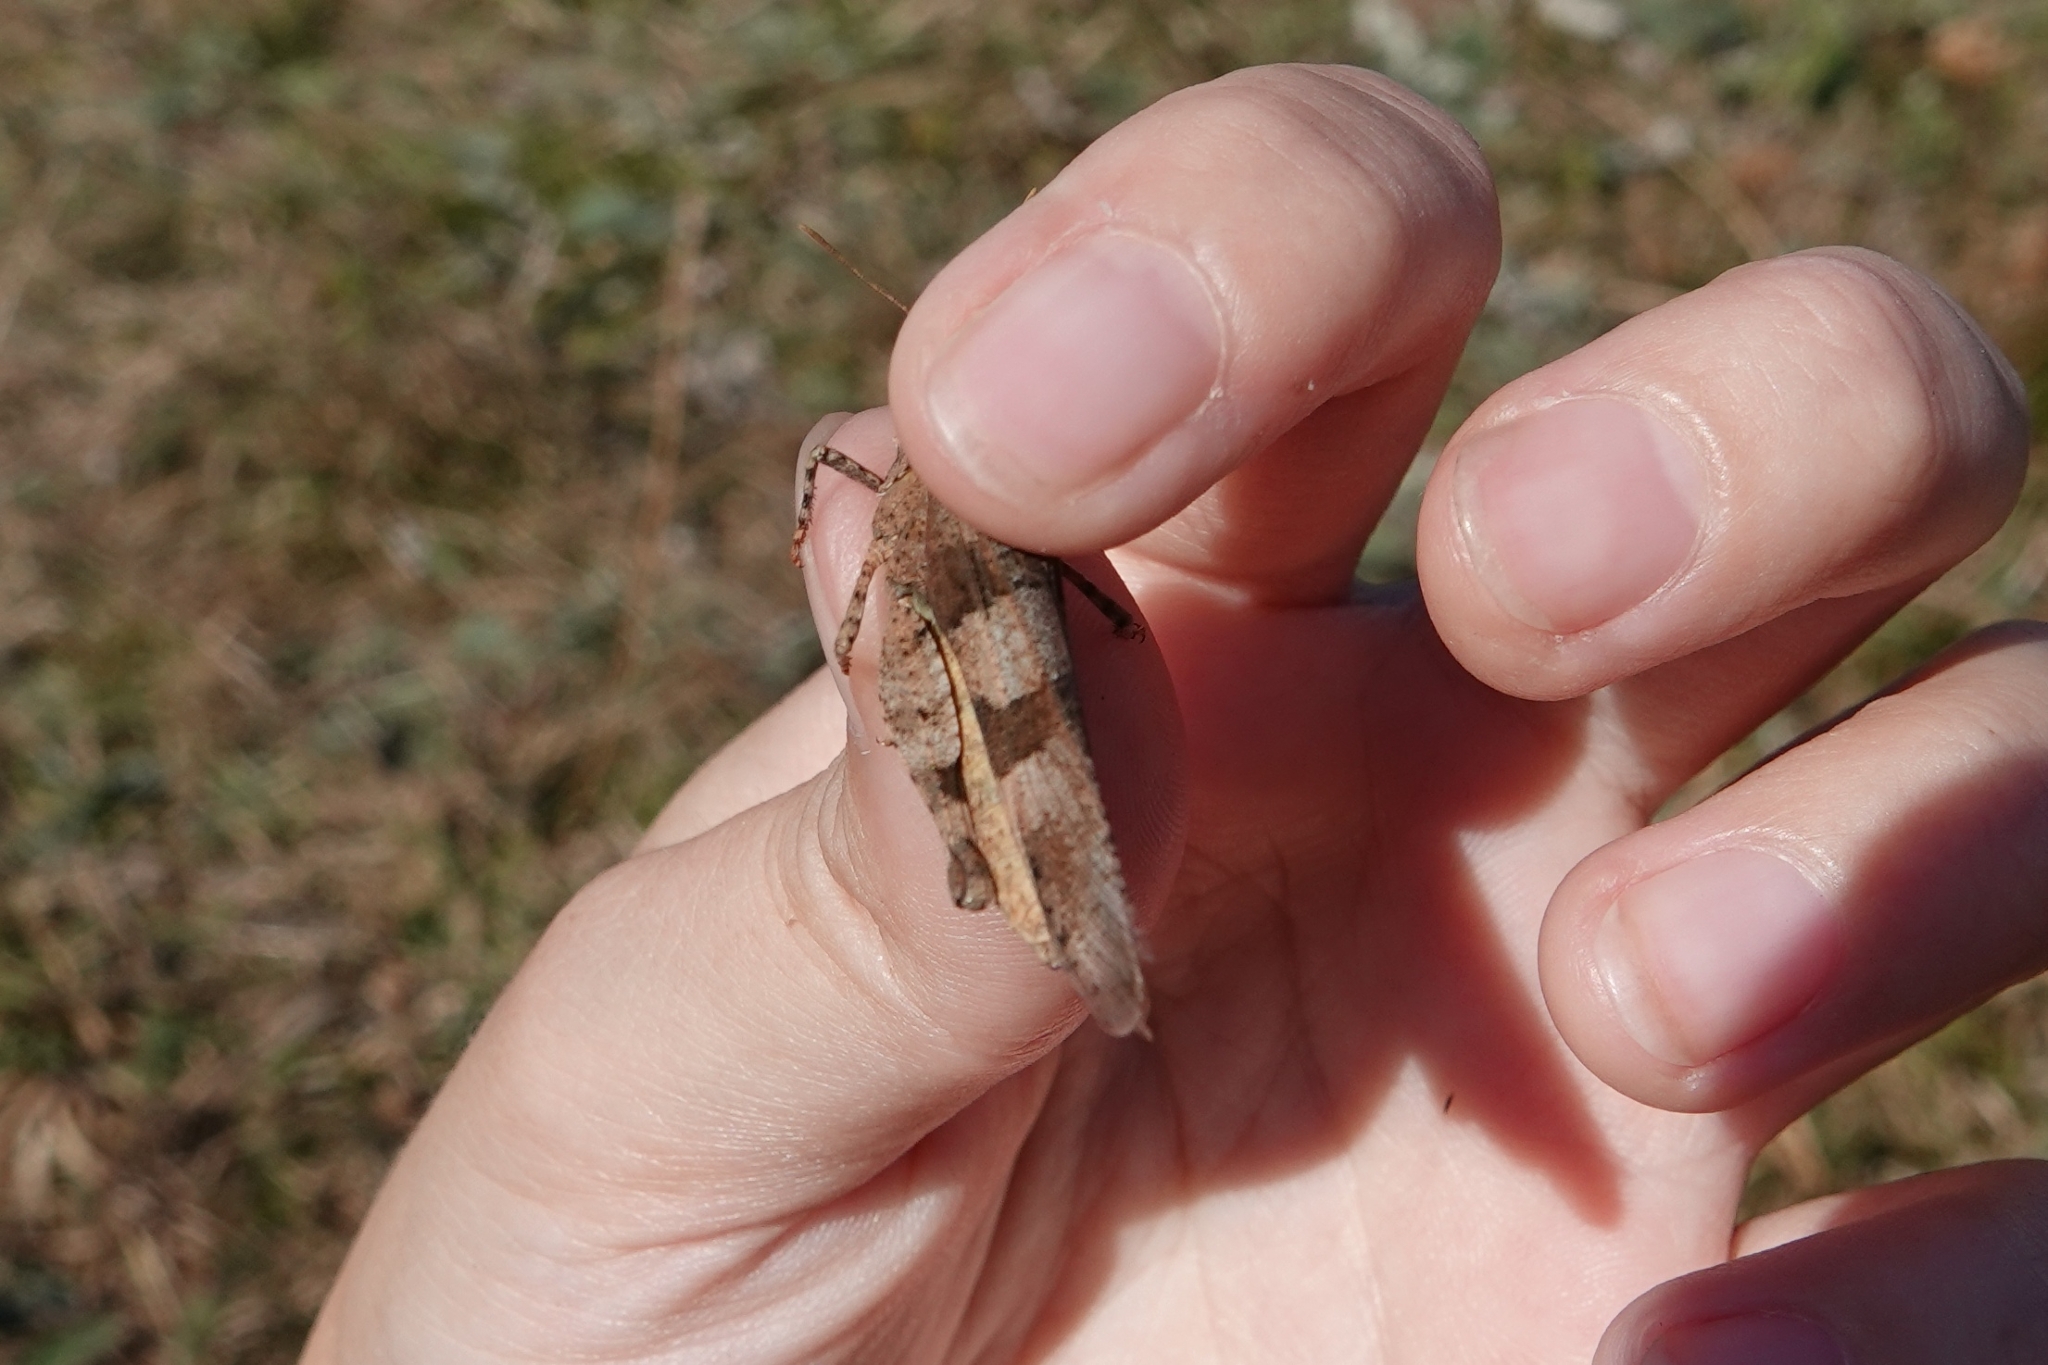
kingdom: Animalia
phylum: Arthropoda
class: Insecta
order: Orthoptera
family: Acrididae
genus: Oedipoda
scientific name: Oedipoda caerulescens
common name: Blue-winged grasshopper
